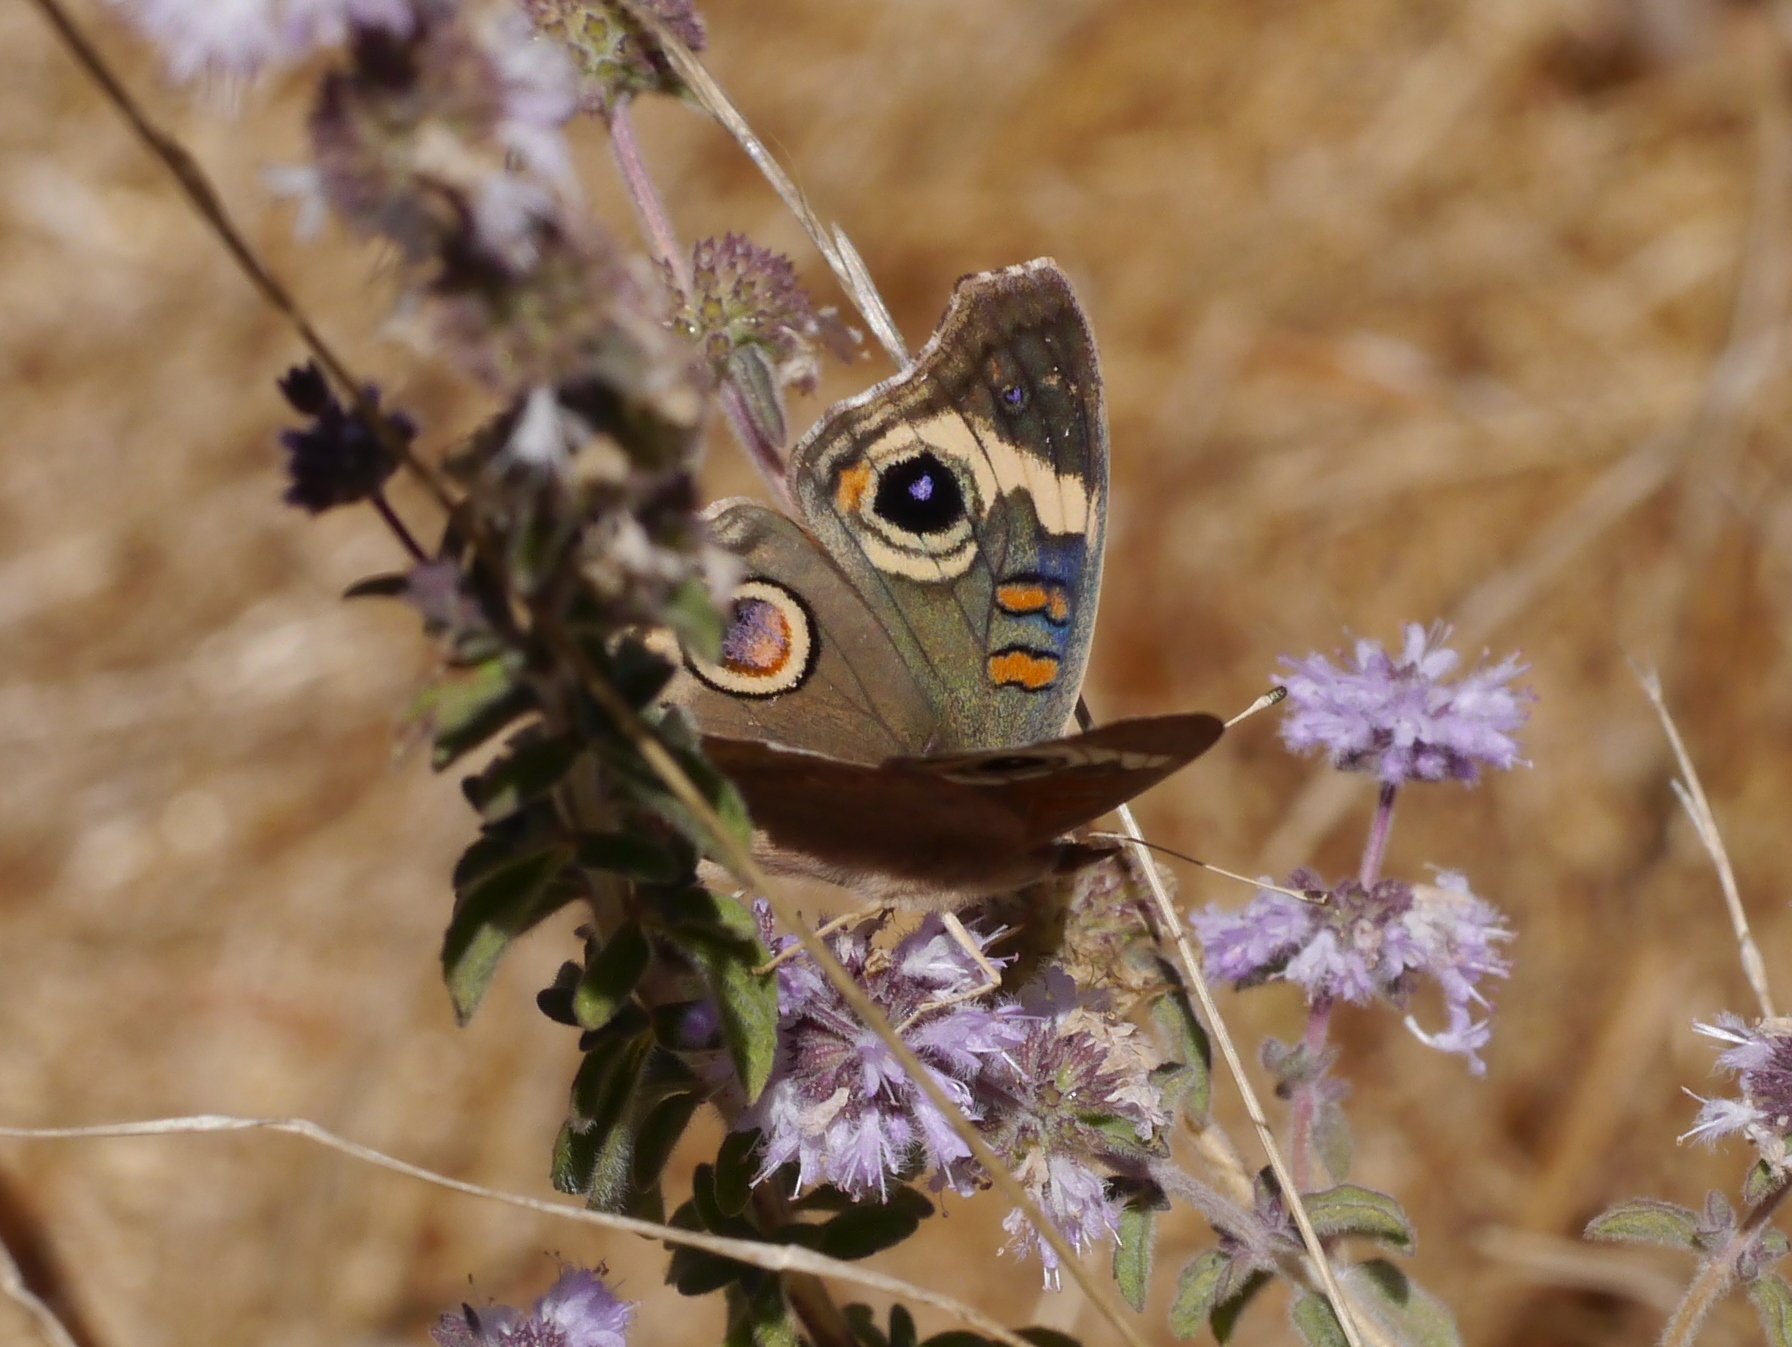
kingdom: Animalia
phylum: Arthropoda
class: Insecta
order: Lepidoptera
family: Nymphalidae
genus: Junonia
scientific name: Junonia grisea
